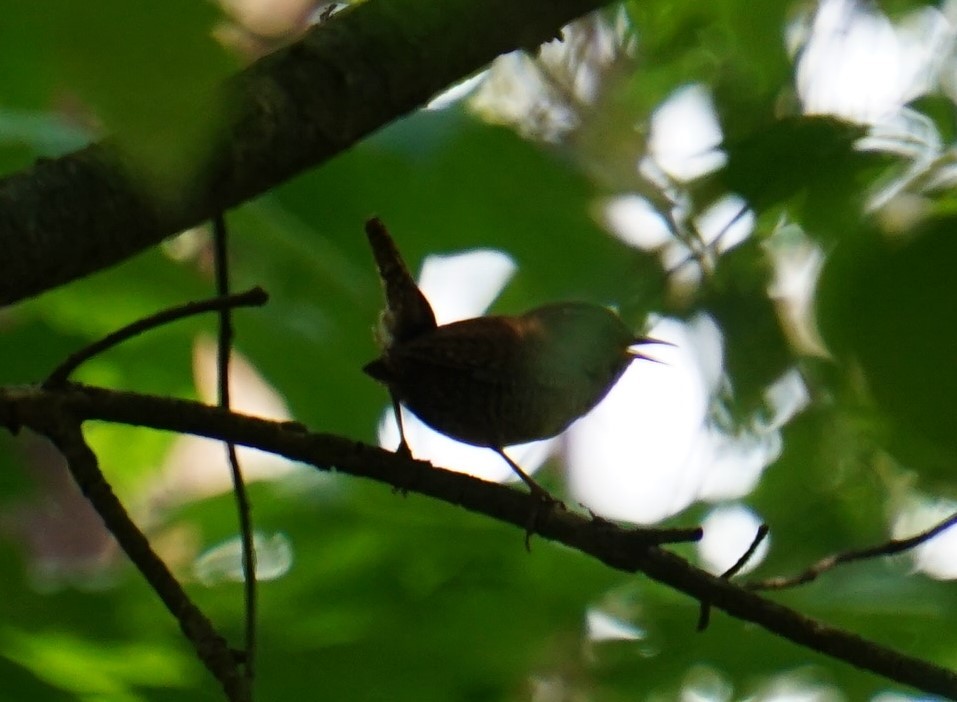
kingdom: Animalia
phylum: Chordata
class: Aves
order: Passeriformes
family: Troglodytidae
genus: Troglodytes
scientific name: Troglodytes troglodytes
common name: Eurasian wren
